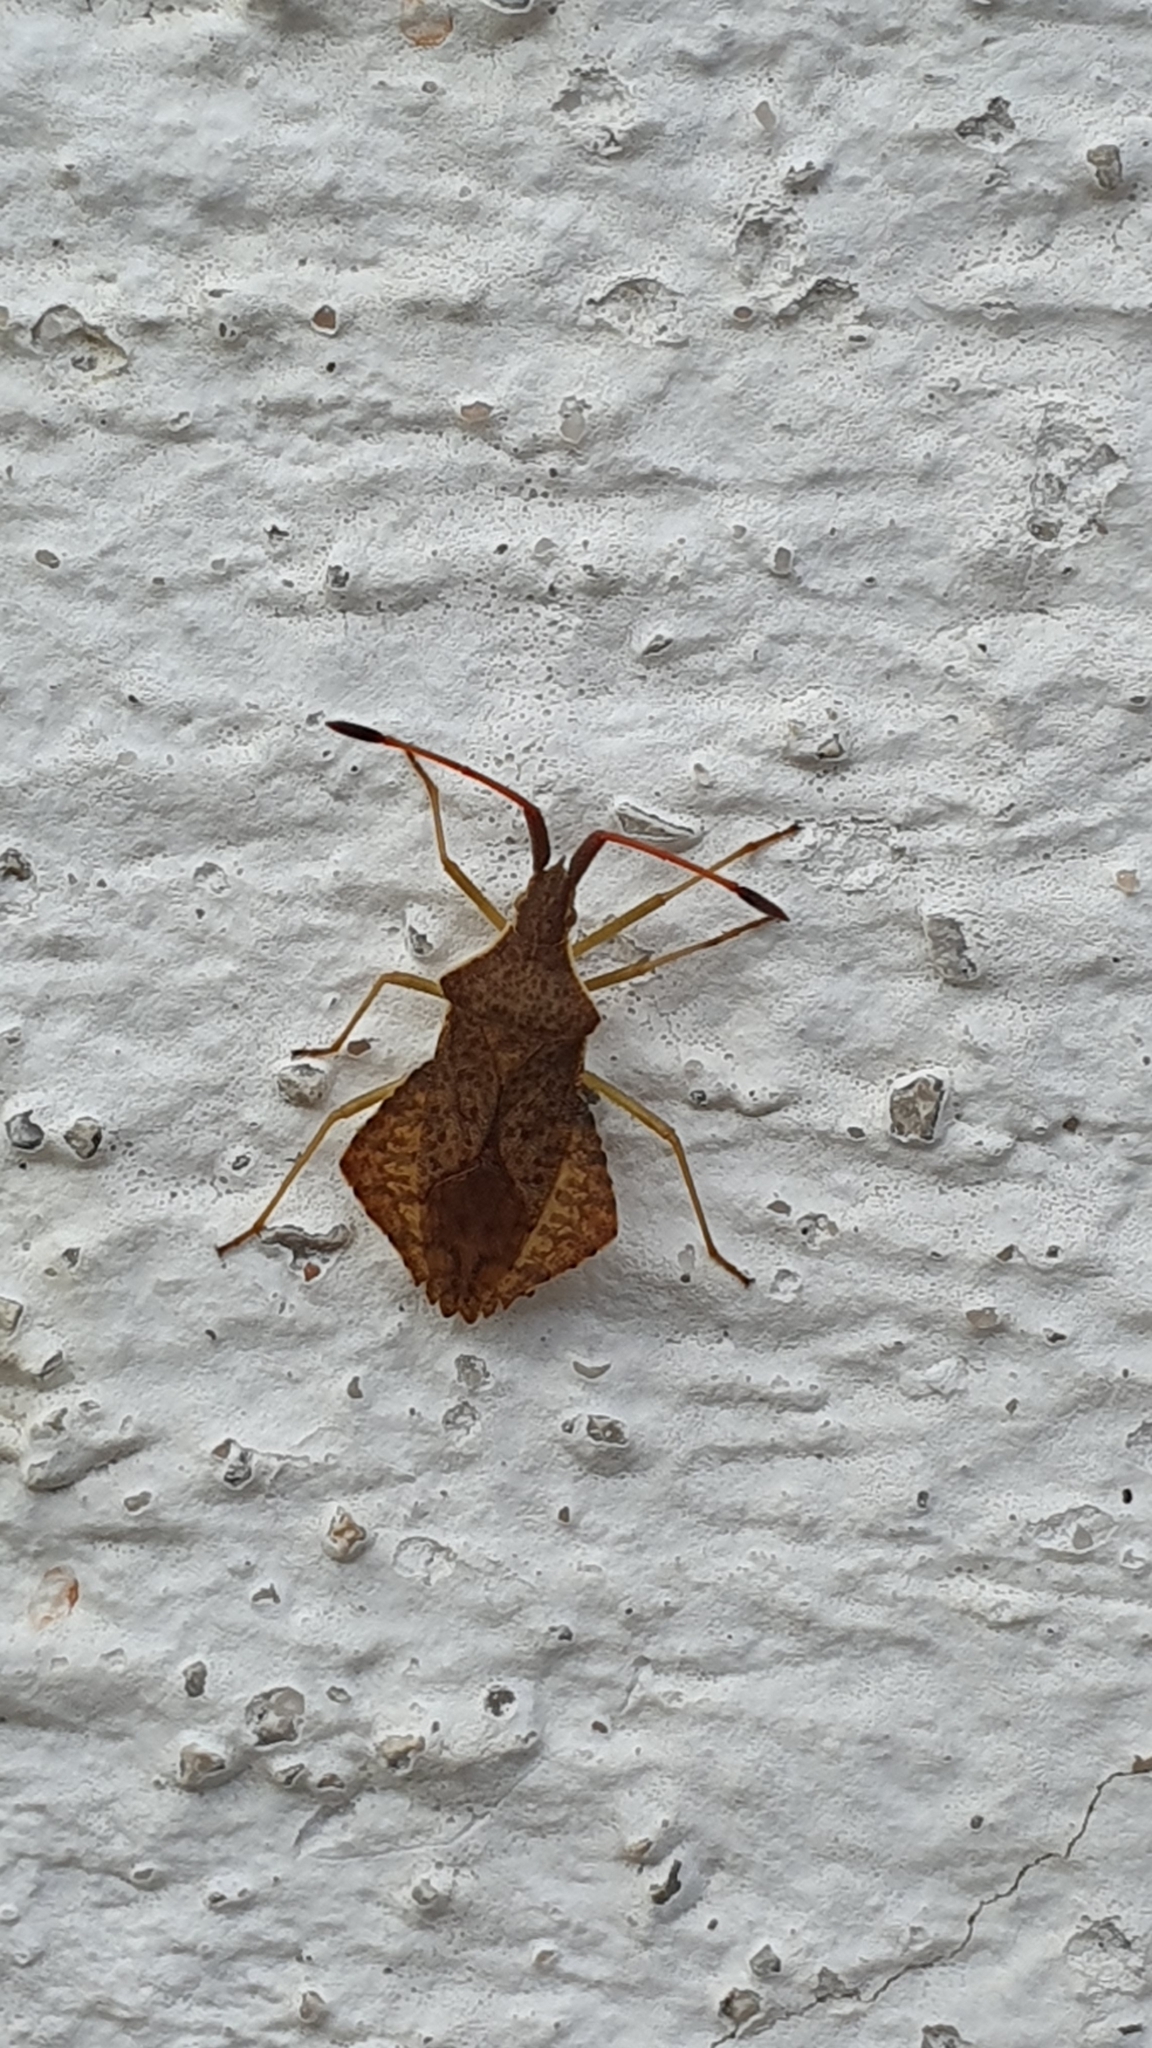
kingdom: Animalia
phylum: Arthropoda
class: Insecta
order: Hemiptera
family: Coreidae
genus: Syromastus
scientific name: Syromastus rhombeus
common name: Rhombic leatherbug
